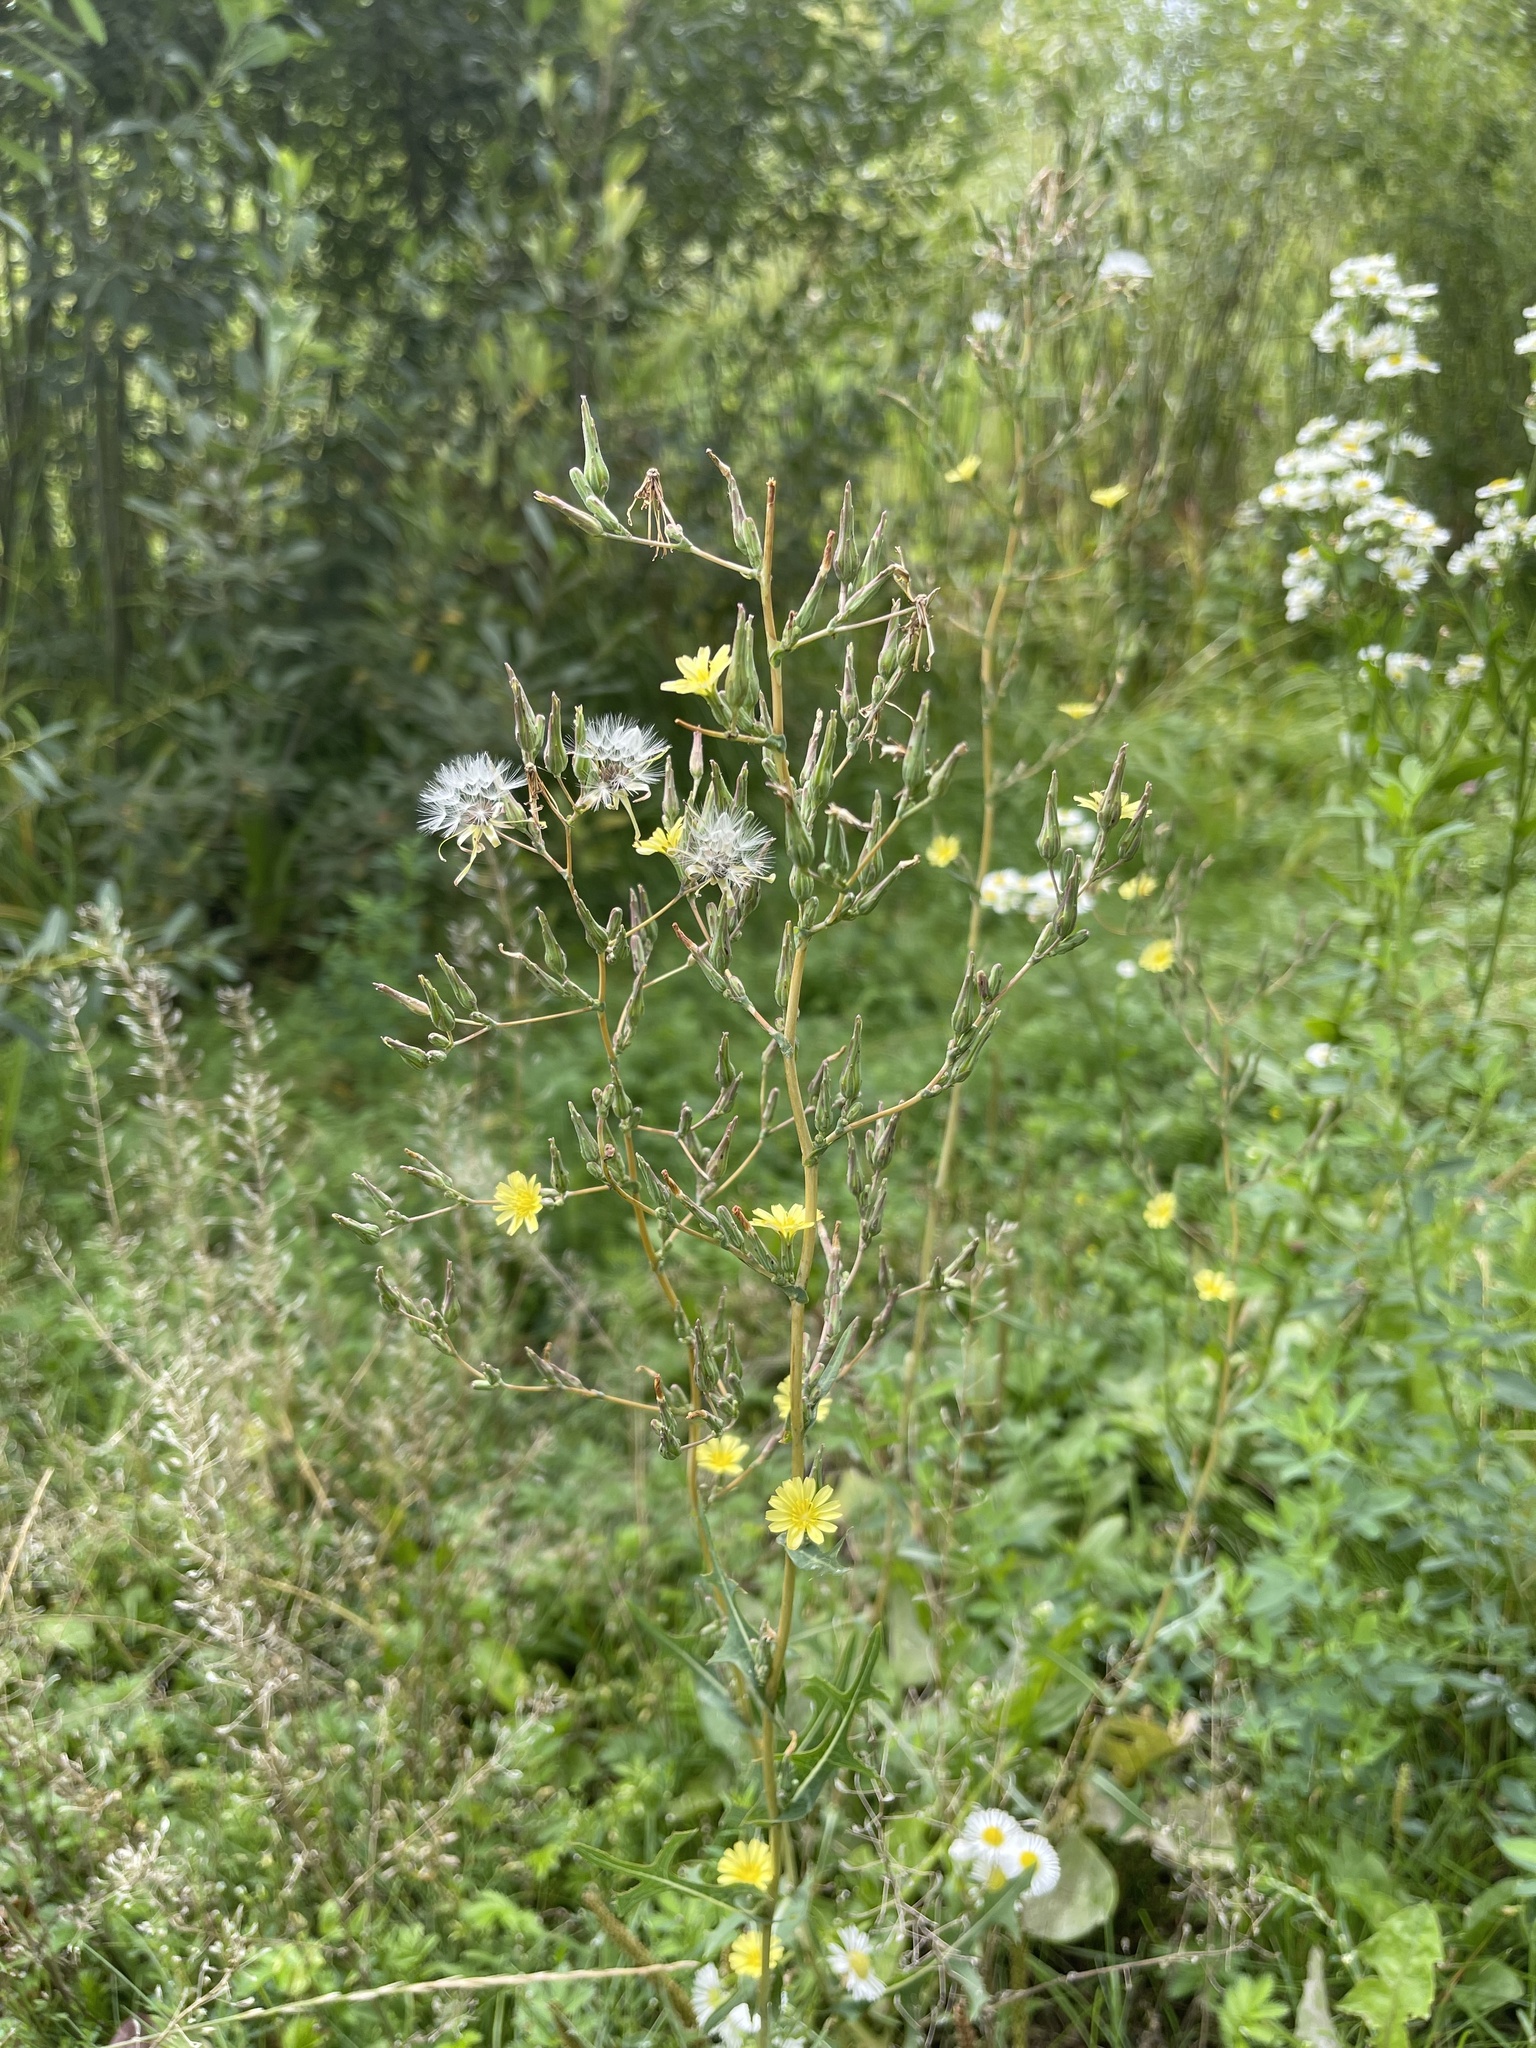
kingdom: Plantae
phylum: Tracheophyta
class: Magnoliopsida
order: Asterales
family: Asteraceae
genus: Lactuca
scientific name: Lactuca serriola
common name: Prickly lettuce
